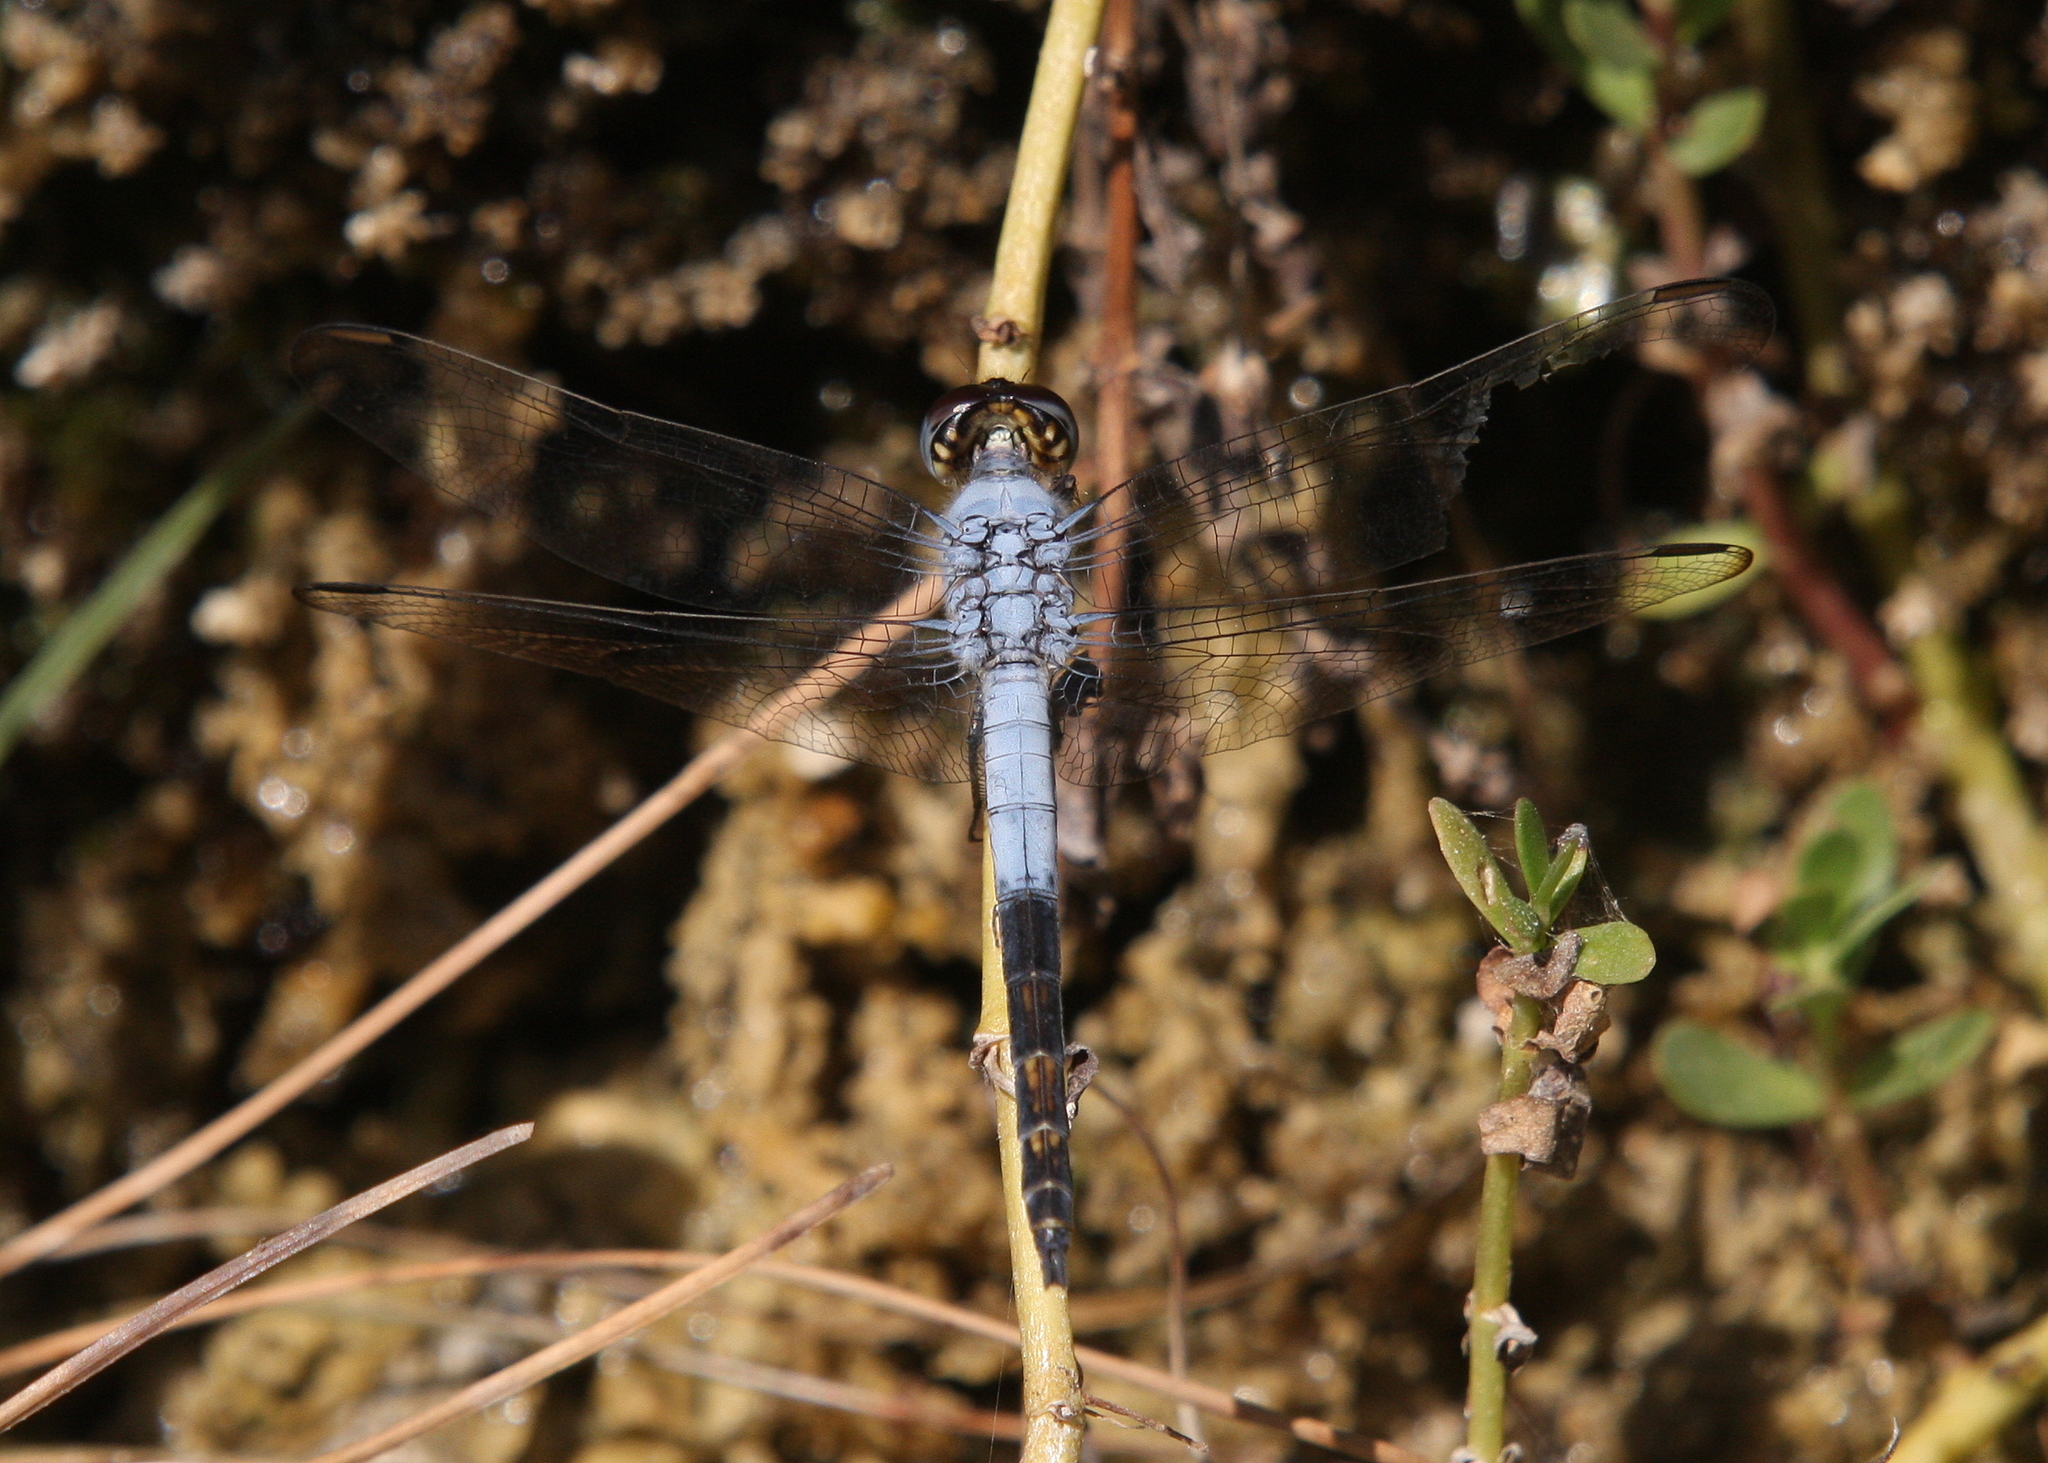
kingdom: Animalia
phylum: Arthropoda
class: Insecta
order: Odonata
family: Libellulidae
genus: Nesciothemis
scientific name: Nesciothemis farinosa
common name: Eastern blacktail
